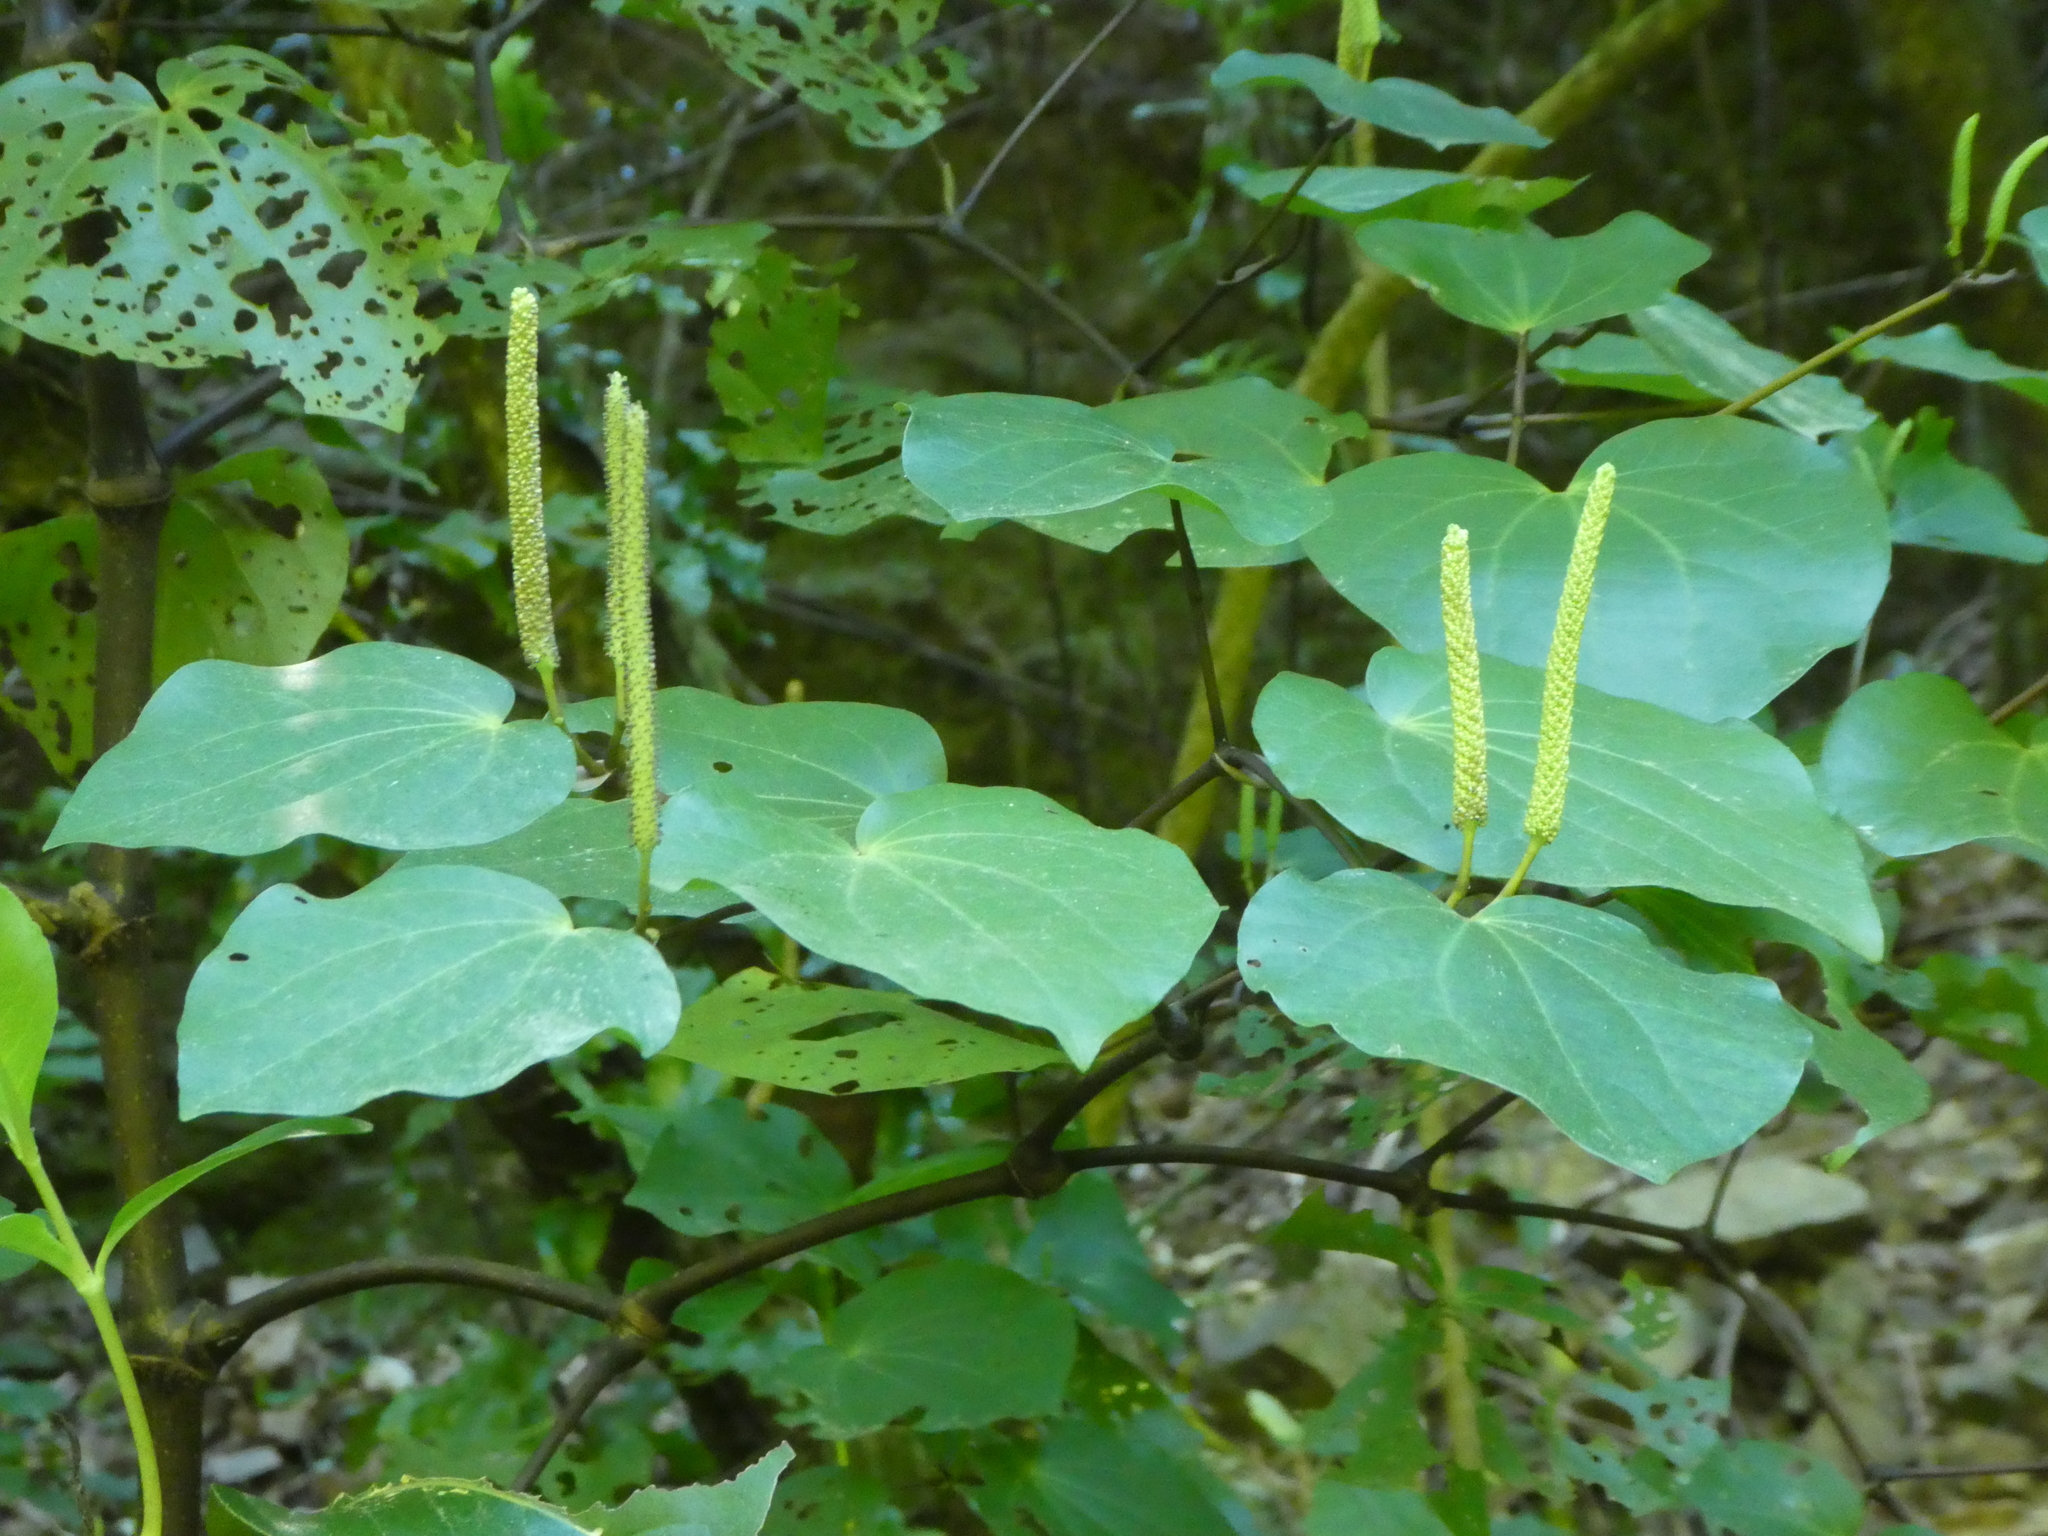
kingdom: Plantae
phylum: Tracheophyta
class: Magnoliopsida
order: Piperales
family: Piperaceae
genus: Macropiper
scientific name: Macropiper excelsum
